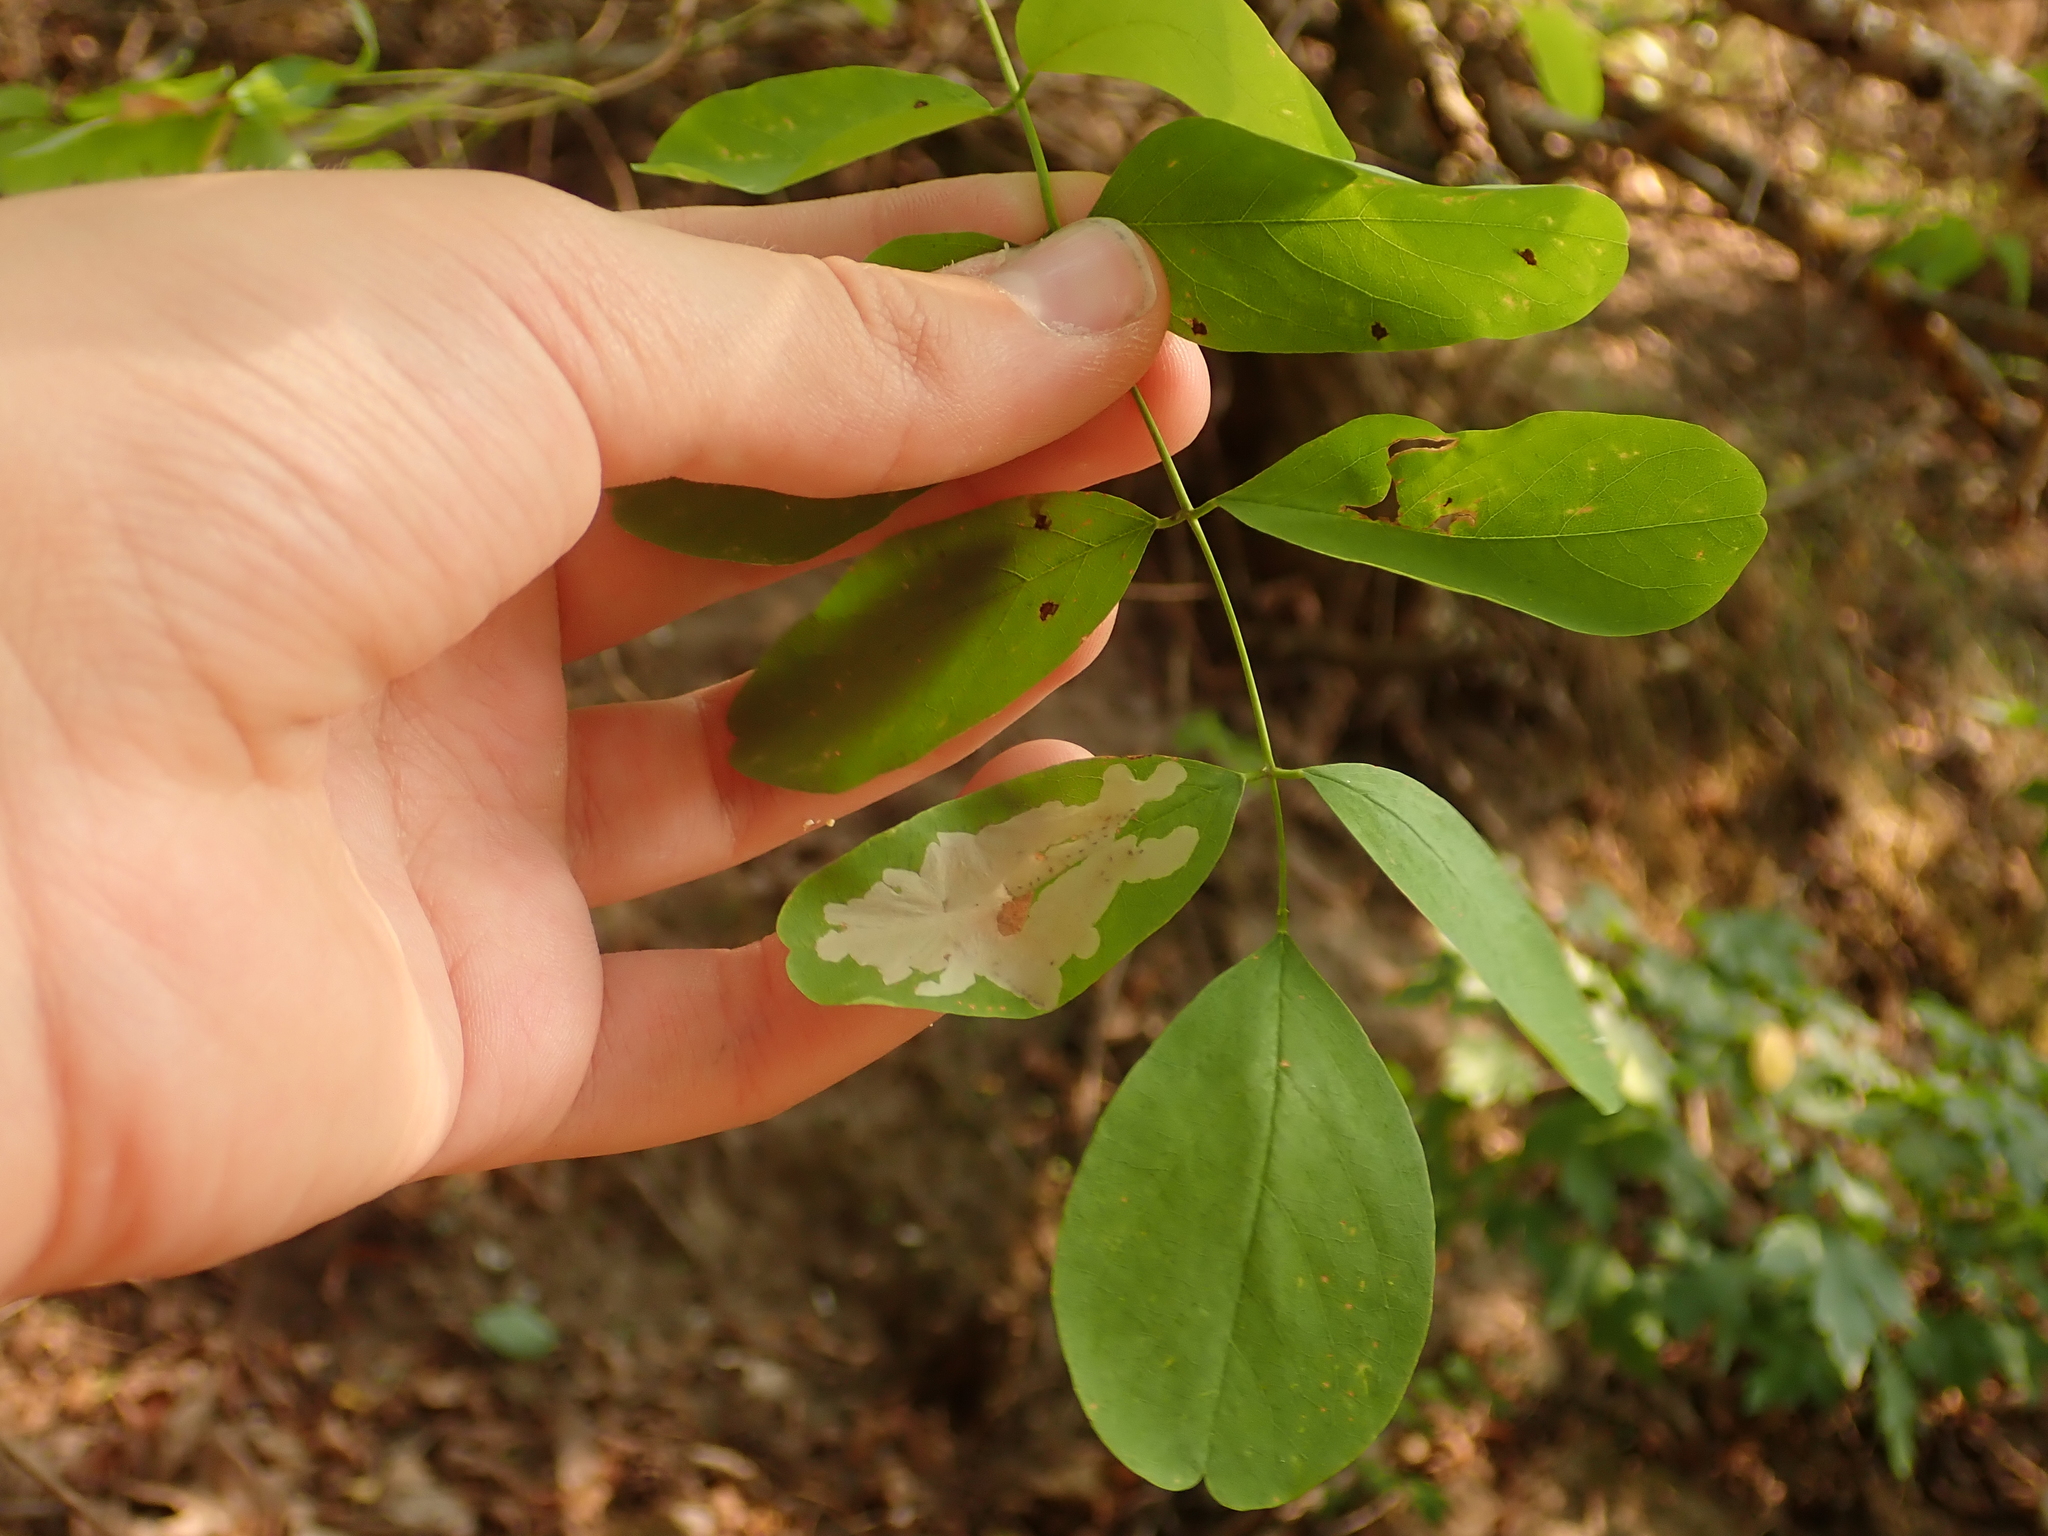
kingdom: Plantae
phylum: Tracheophyta
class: Magnoliopsida
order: Fabales
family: Fabaceae
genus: Robinia
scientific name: Robinia pseudoacacia
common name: Black locust
